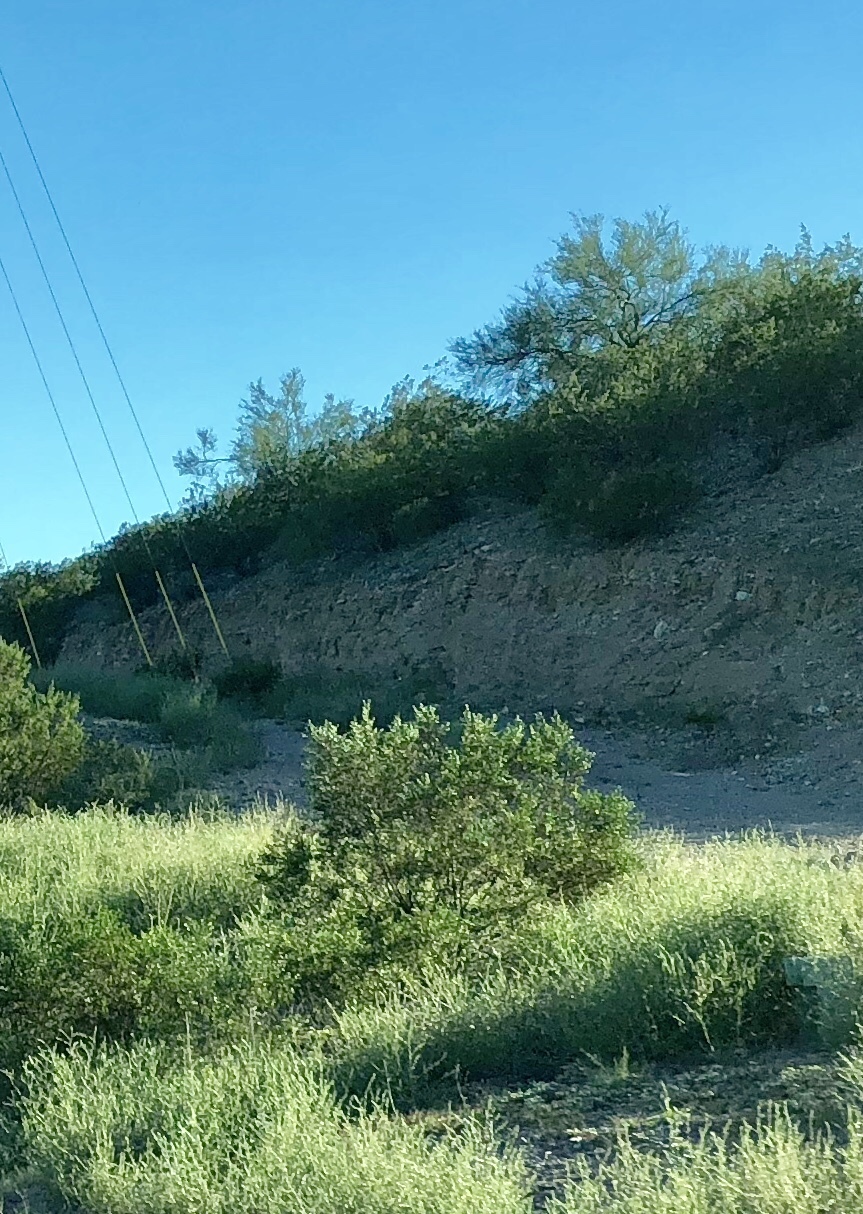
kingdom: Plantae
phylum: Tracheophyta
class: Magnoliopsida
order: Zygophyllales
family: Zygophyllaceae
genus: Larrea
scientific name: Larrea tridentata
